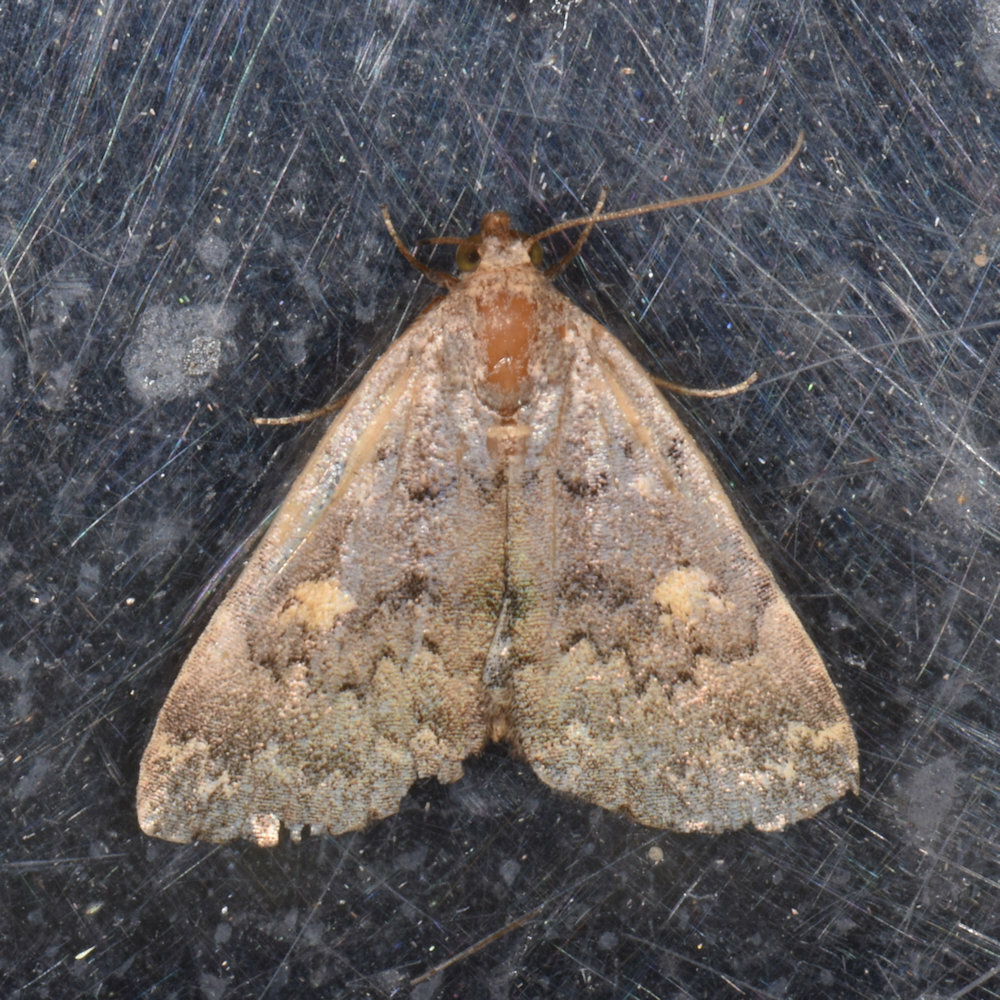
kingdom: Animalia
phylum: Arthropoda
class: Insecta
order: Lepidoptera
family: Erebidae
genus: Idia
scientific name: Idia aemula
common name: Common idia moth
